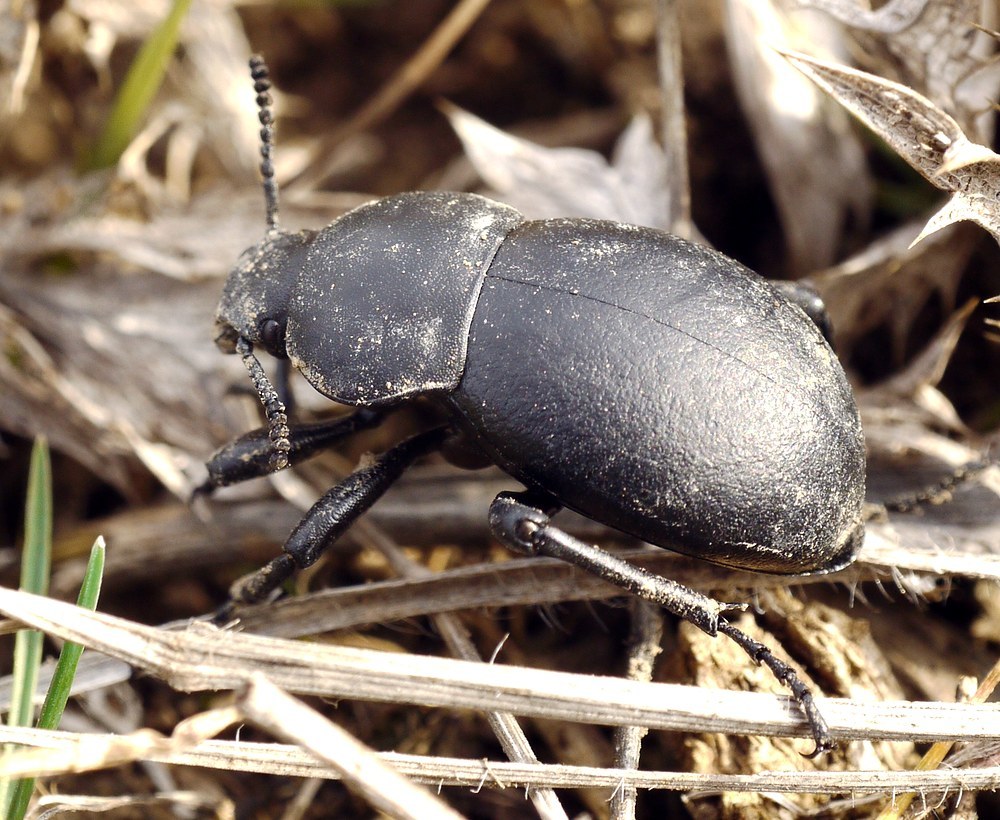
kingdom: Animalia
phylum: Arthropoda
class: Insecta
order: Coleoptera
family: Tenebrionidae
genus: Gnaptor
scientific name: Gnaptor spinimanus
